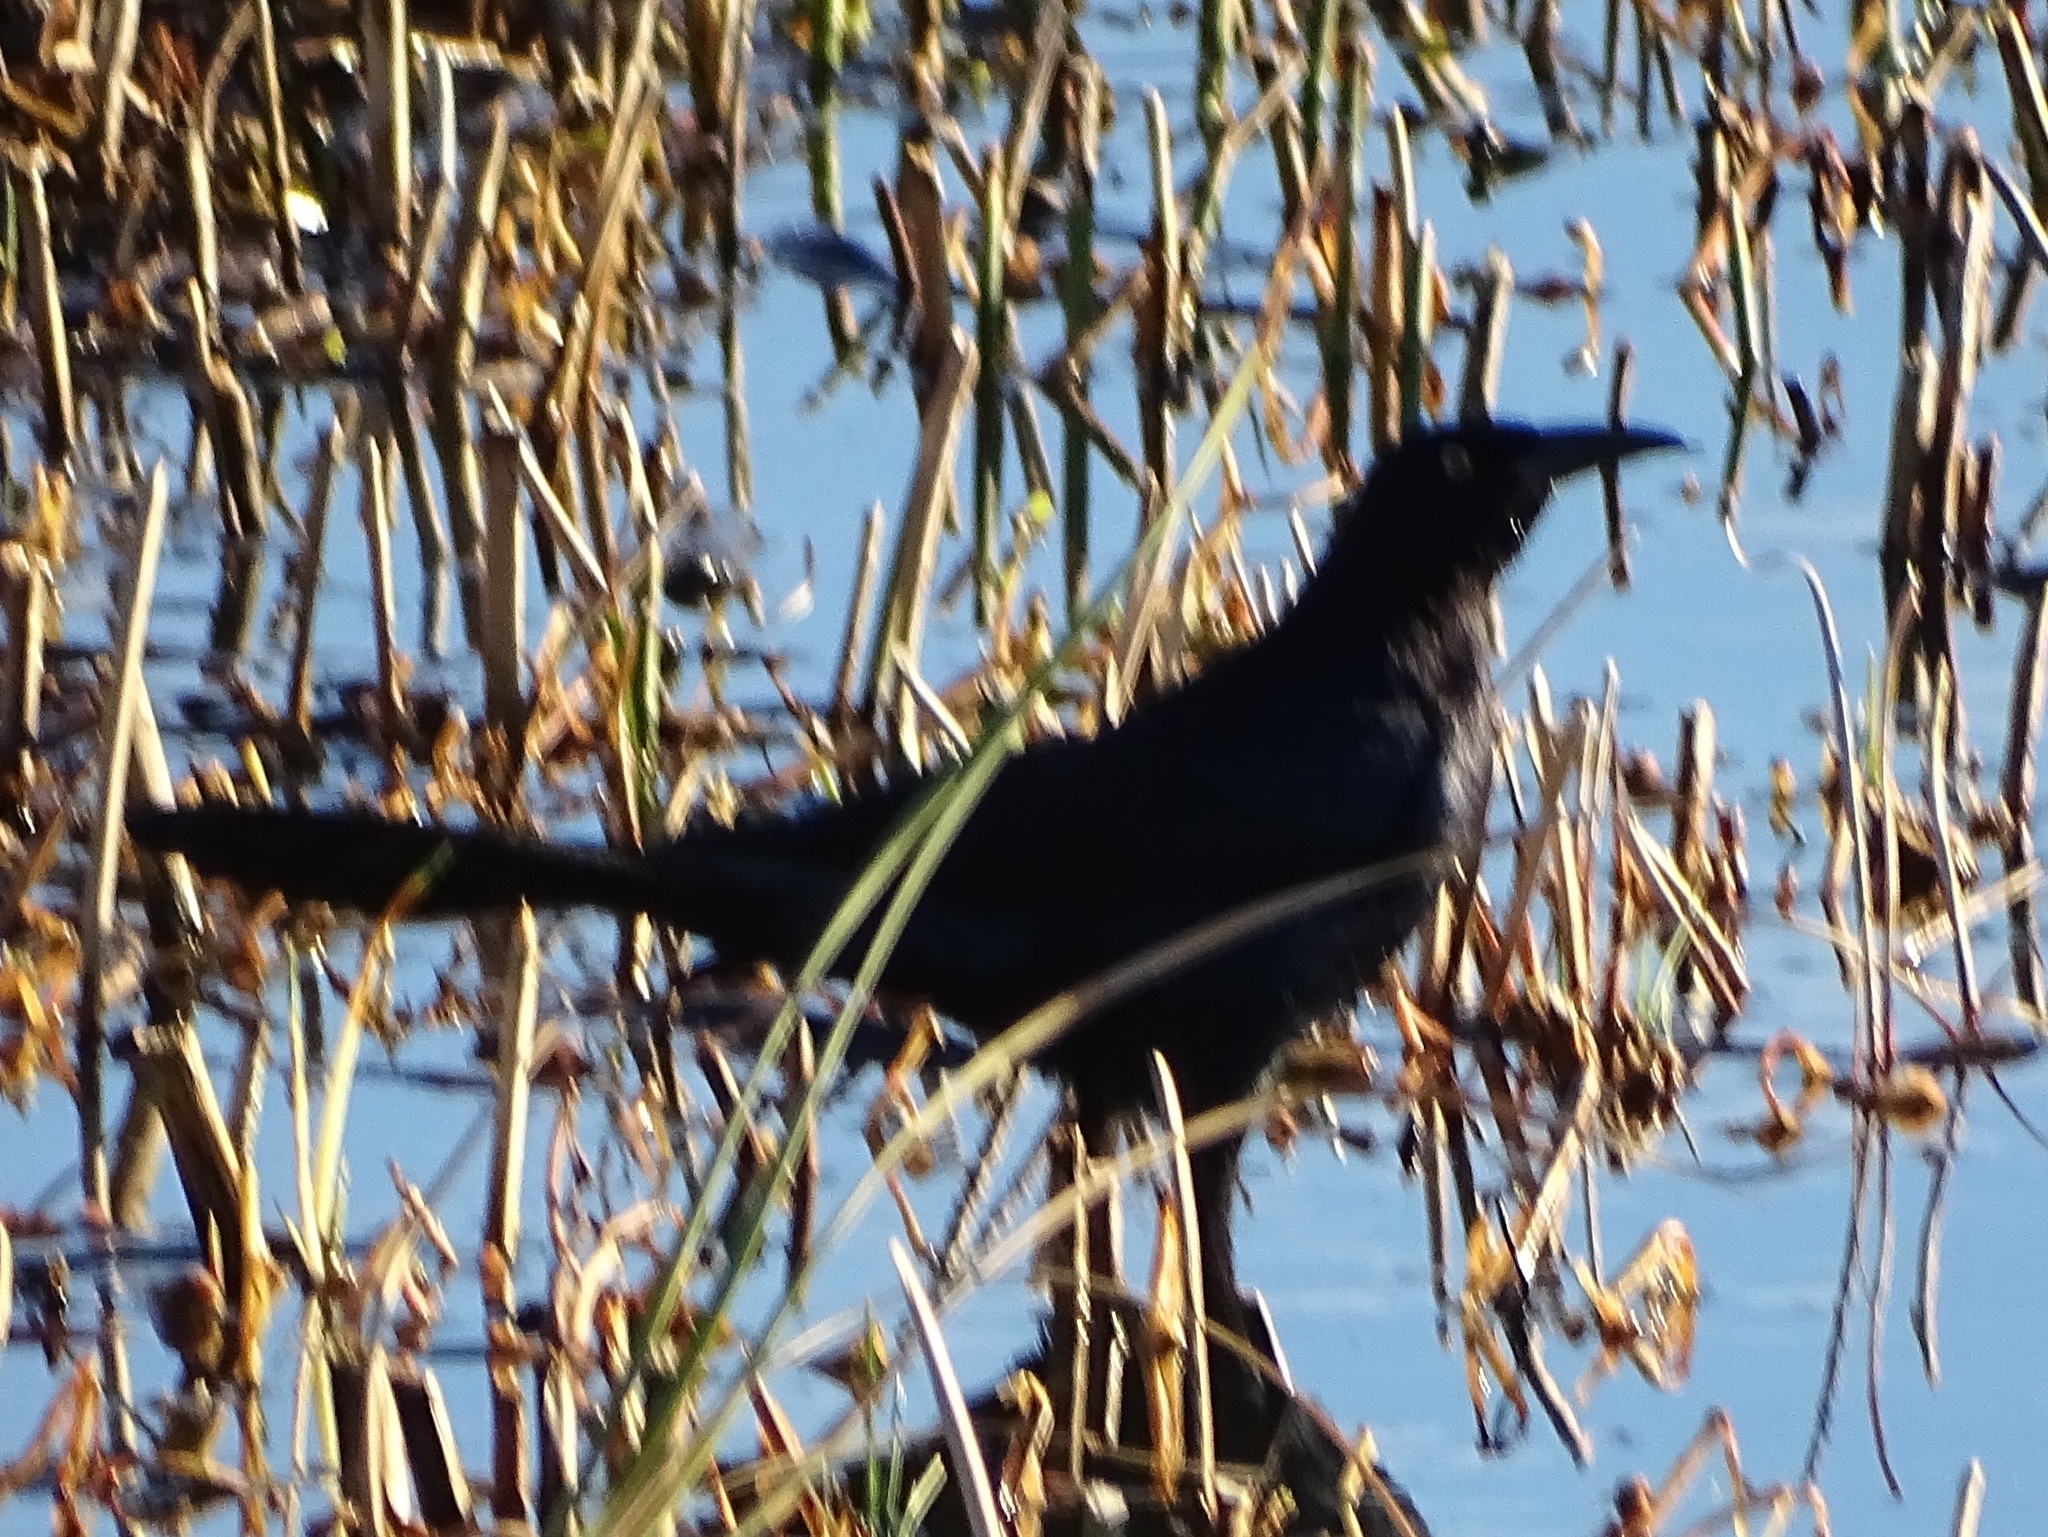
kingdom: Animalia
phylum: Chordata
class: Aves
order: Passeriformes
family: Icteridae
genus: Quiscalus
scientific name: Quiscalus mexicanus
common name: Great-tailed grackle
